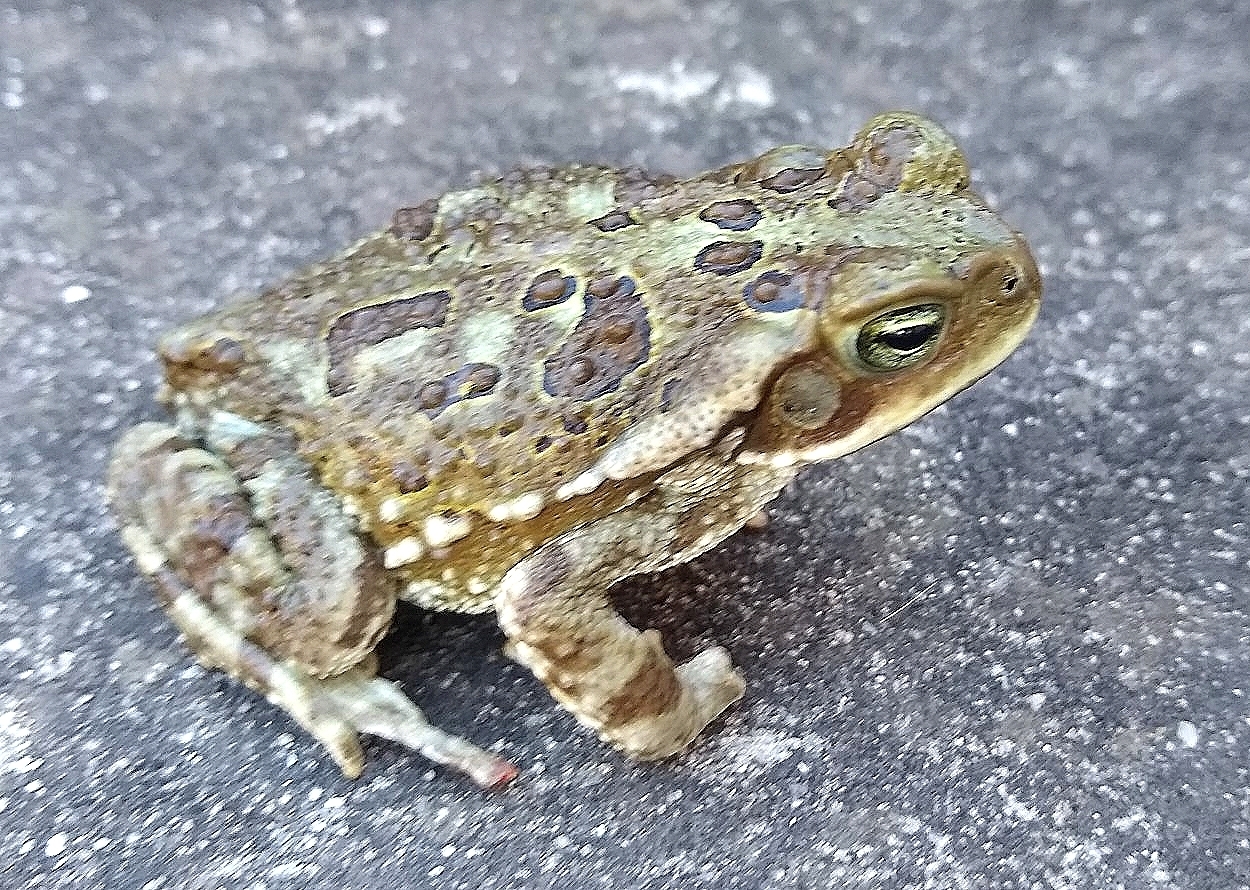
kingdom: Animalia
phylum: Chordata
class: Amphibia
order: Anura
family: Bufonidae
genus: Rhinella
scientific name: Rhinella arenarum
